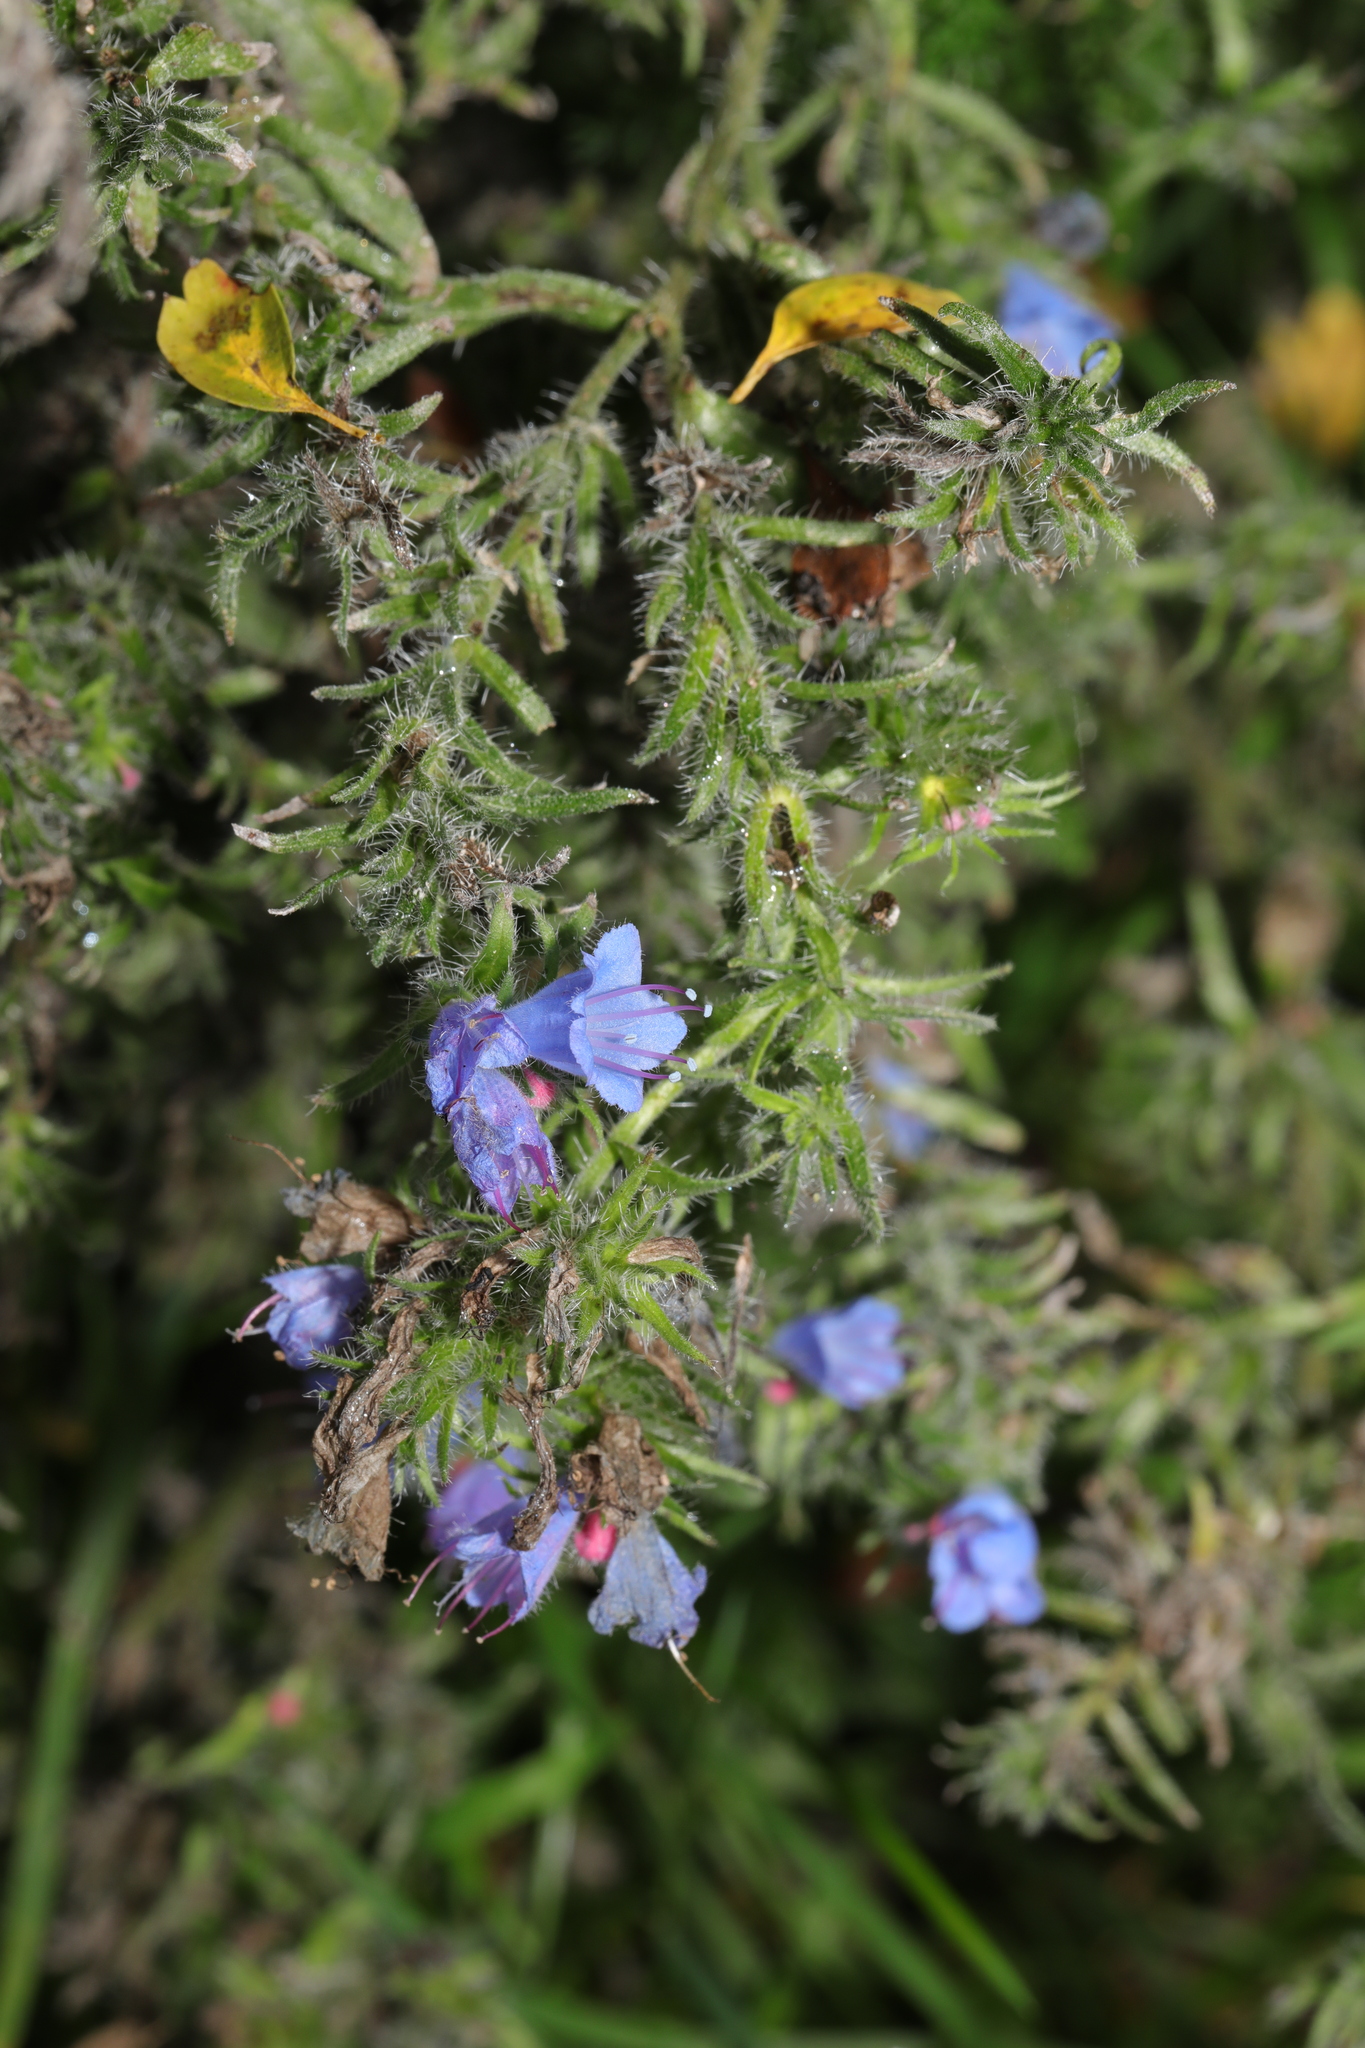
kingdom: Plantae
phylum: Tracheophyta
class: Magnoliopsida
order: Boraginales
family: Boraginaceae
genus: Echium
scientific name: Echium vulgare
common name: Common viper's bugloss
